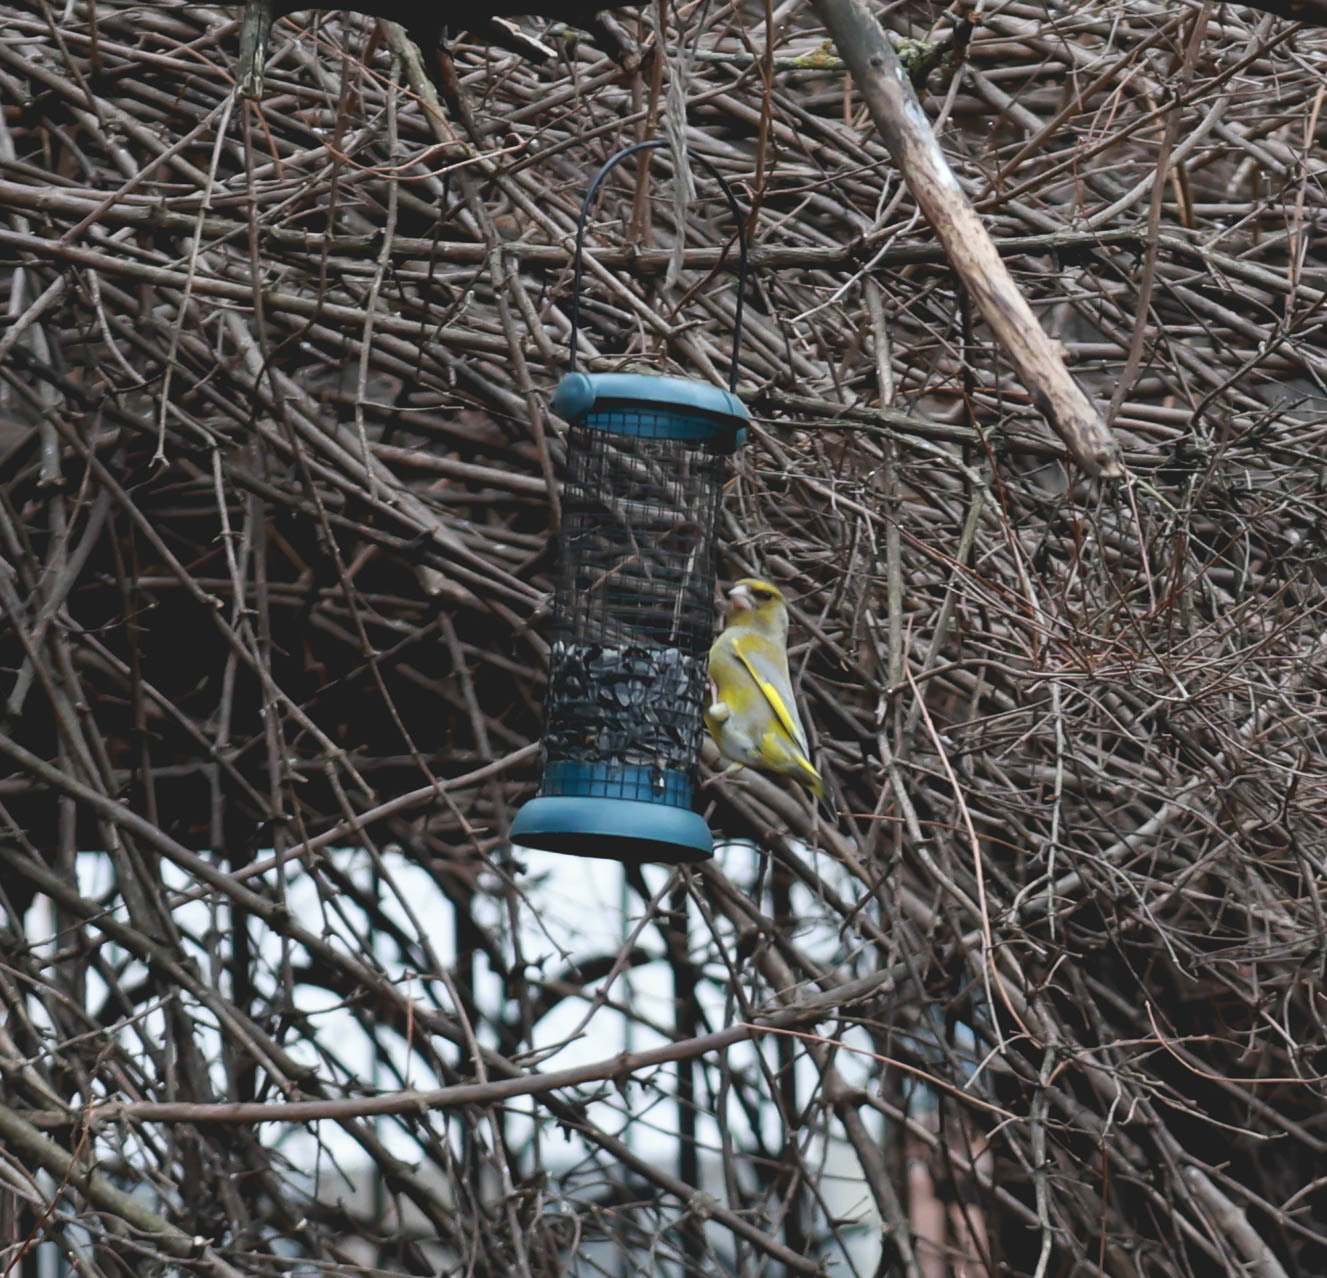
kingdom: Plantae
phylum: Tracheophyta
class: Liliopsida
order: Poales
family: Poaceae
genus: Chloris
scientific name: Chloris chloris
